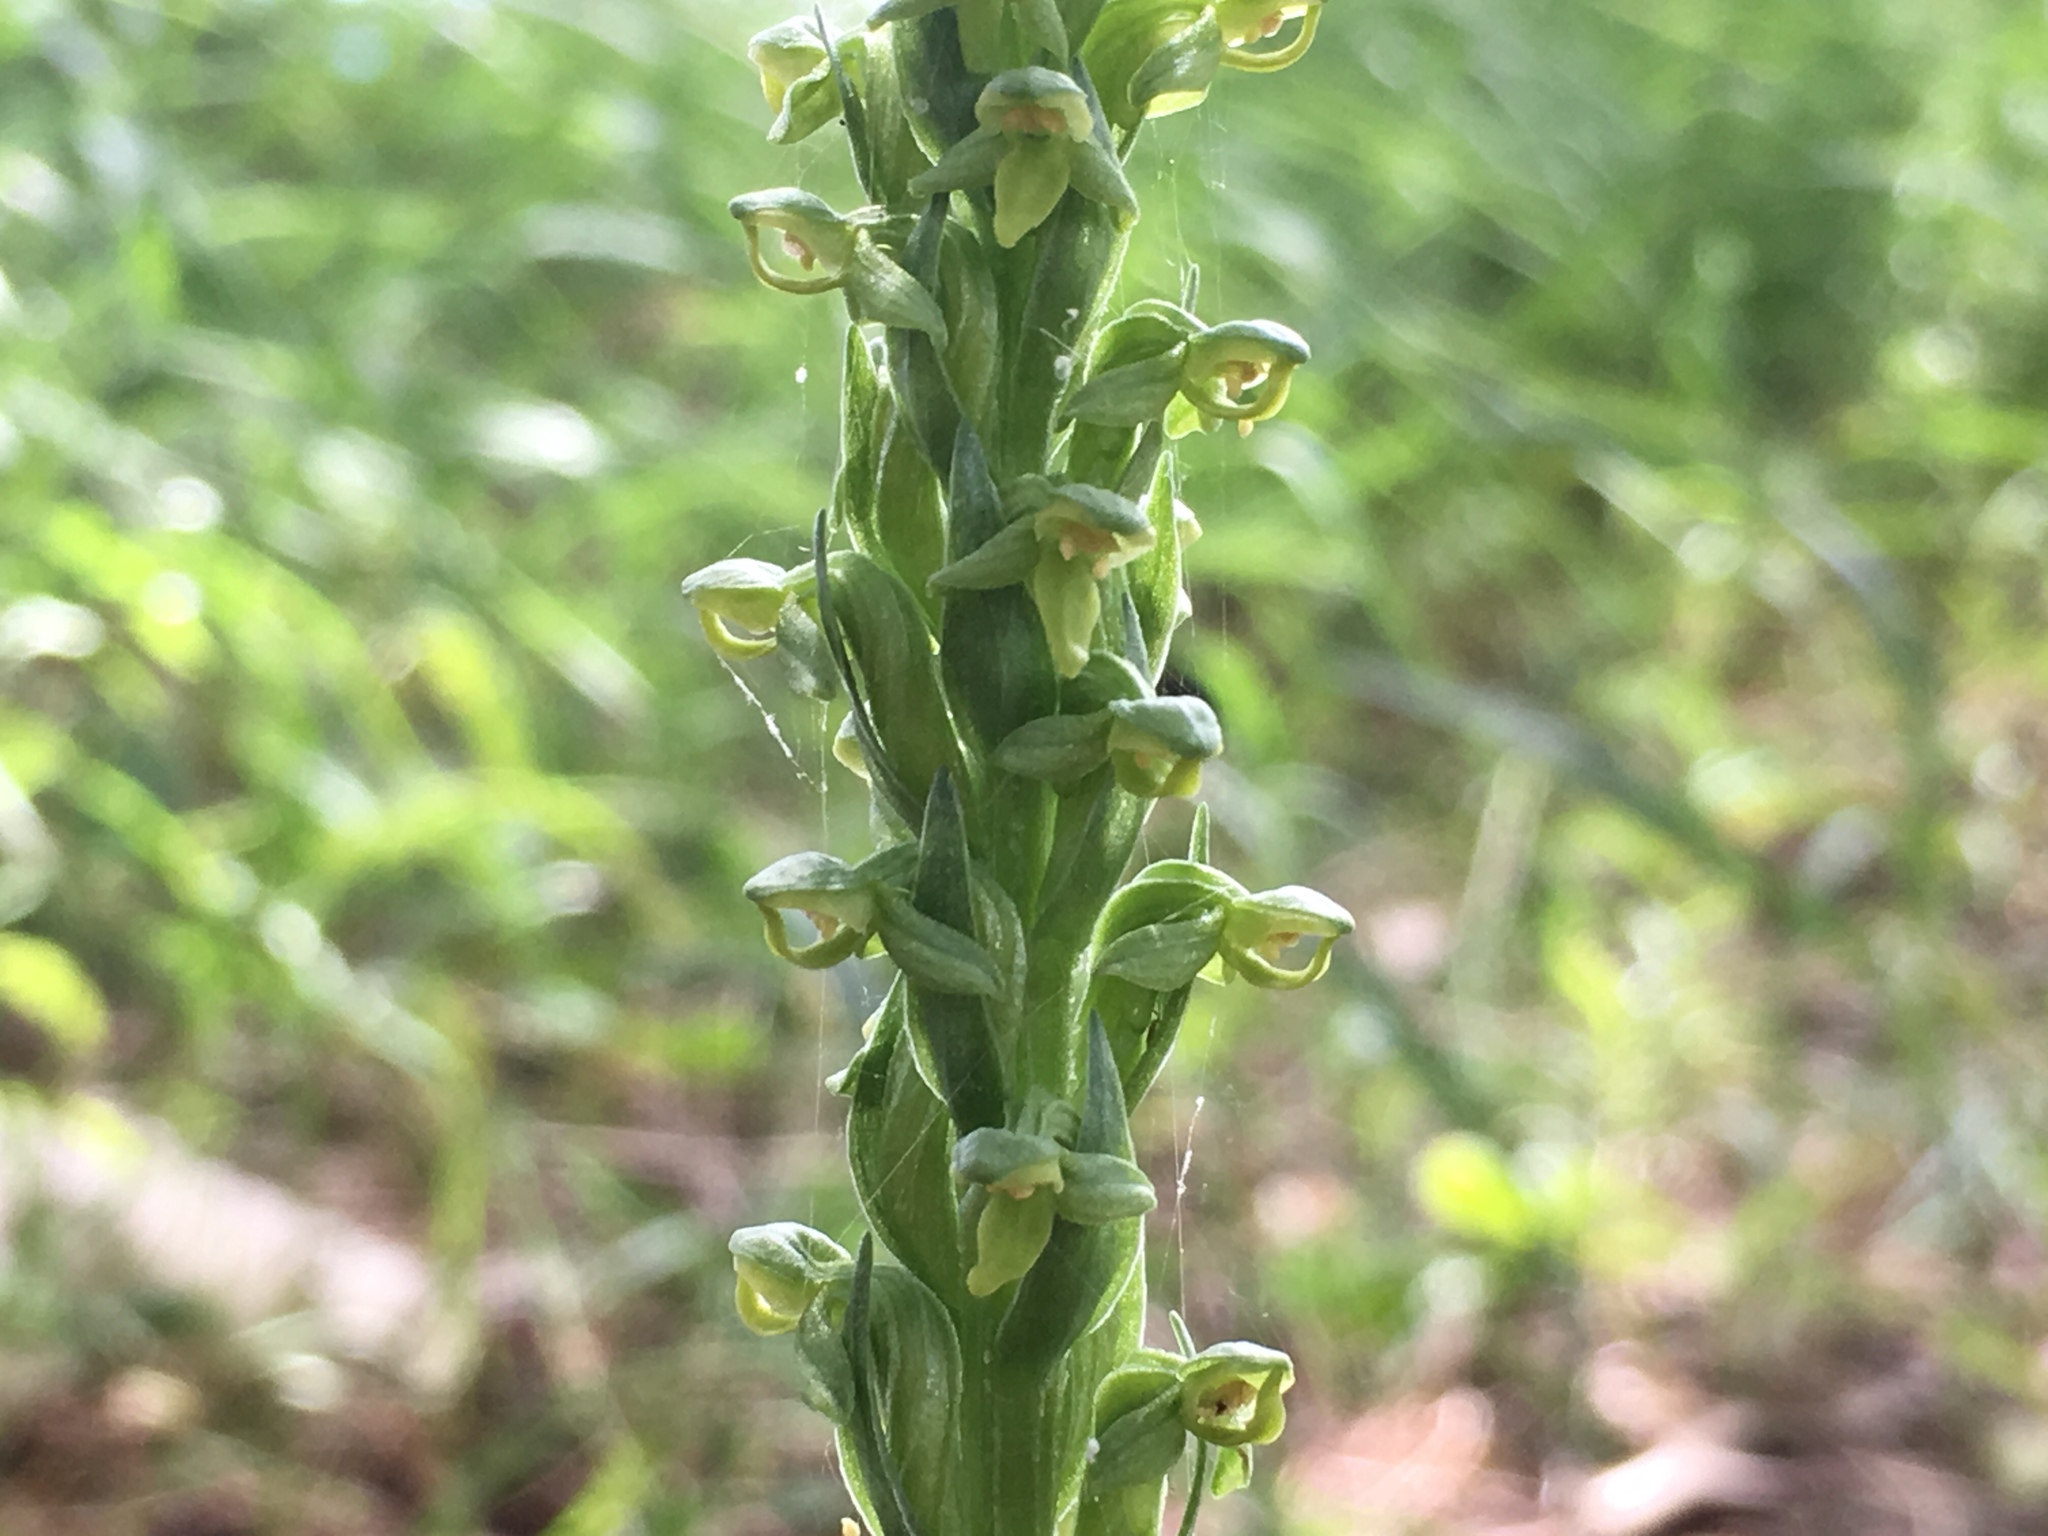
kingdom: Plantae
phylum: Tracheophyta
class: Liliopsida
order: Asparagales
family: Orchidaceae
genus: Platanthera
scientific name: Platanthera aquilonis
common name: Northern green orchid
